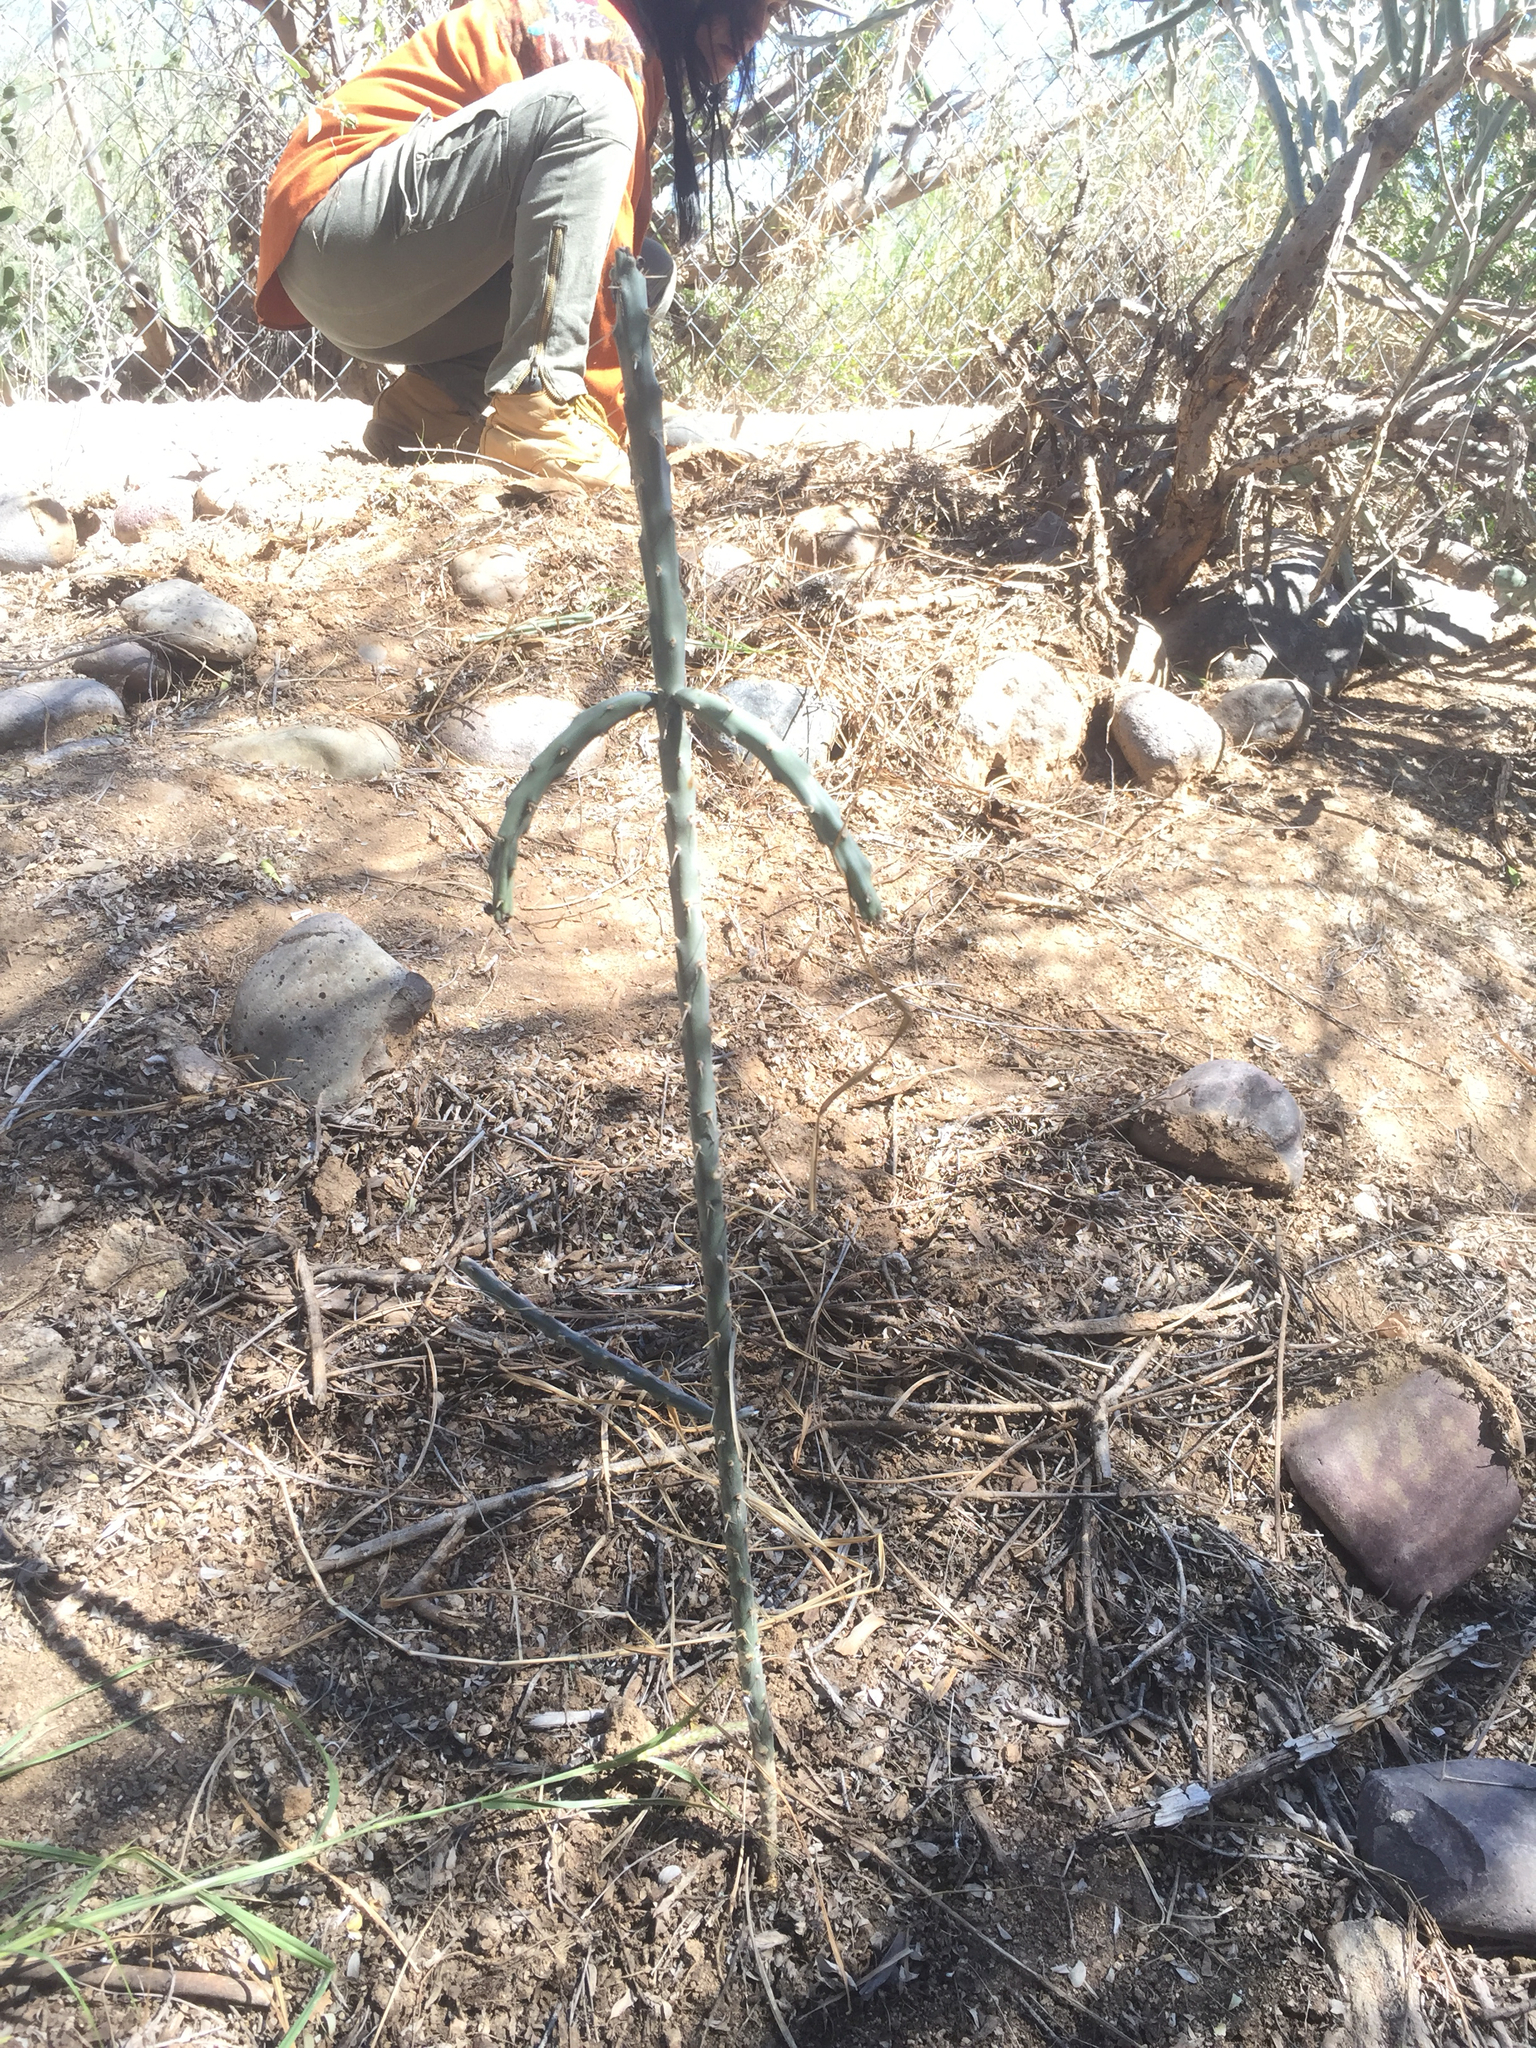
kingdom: Plantae
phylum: Tracheophyta
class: Magnoliopsida
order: Caryophyllales
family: Cactaceae
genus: Cylindropuntia
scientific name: Cylindropuntia leptocaulis
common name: Christmas cactus
